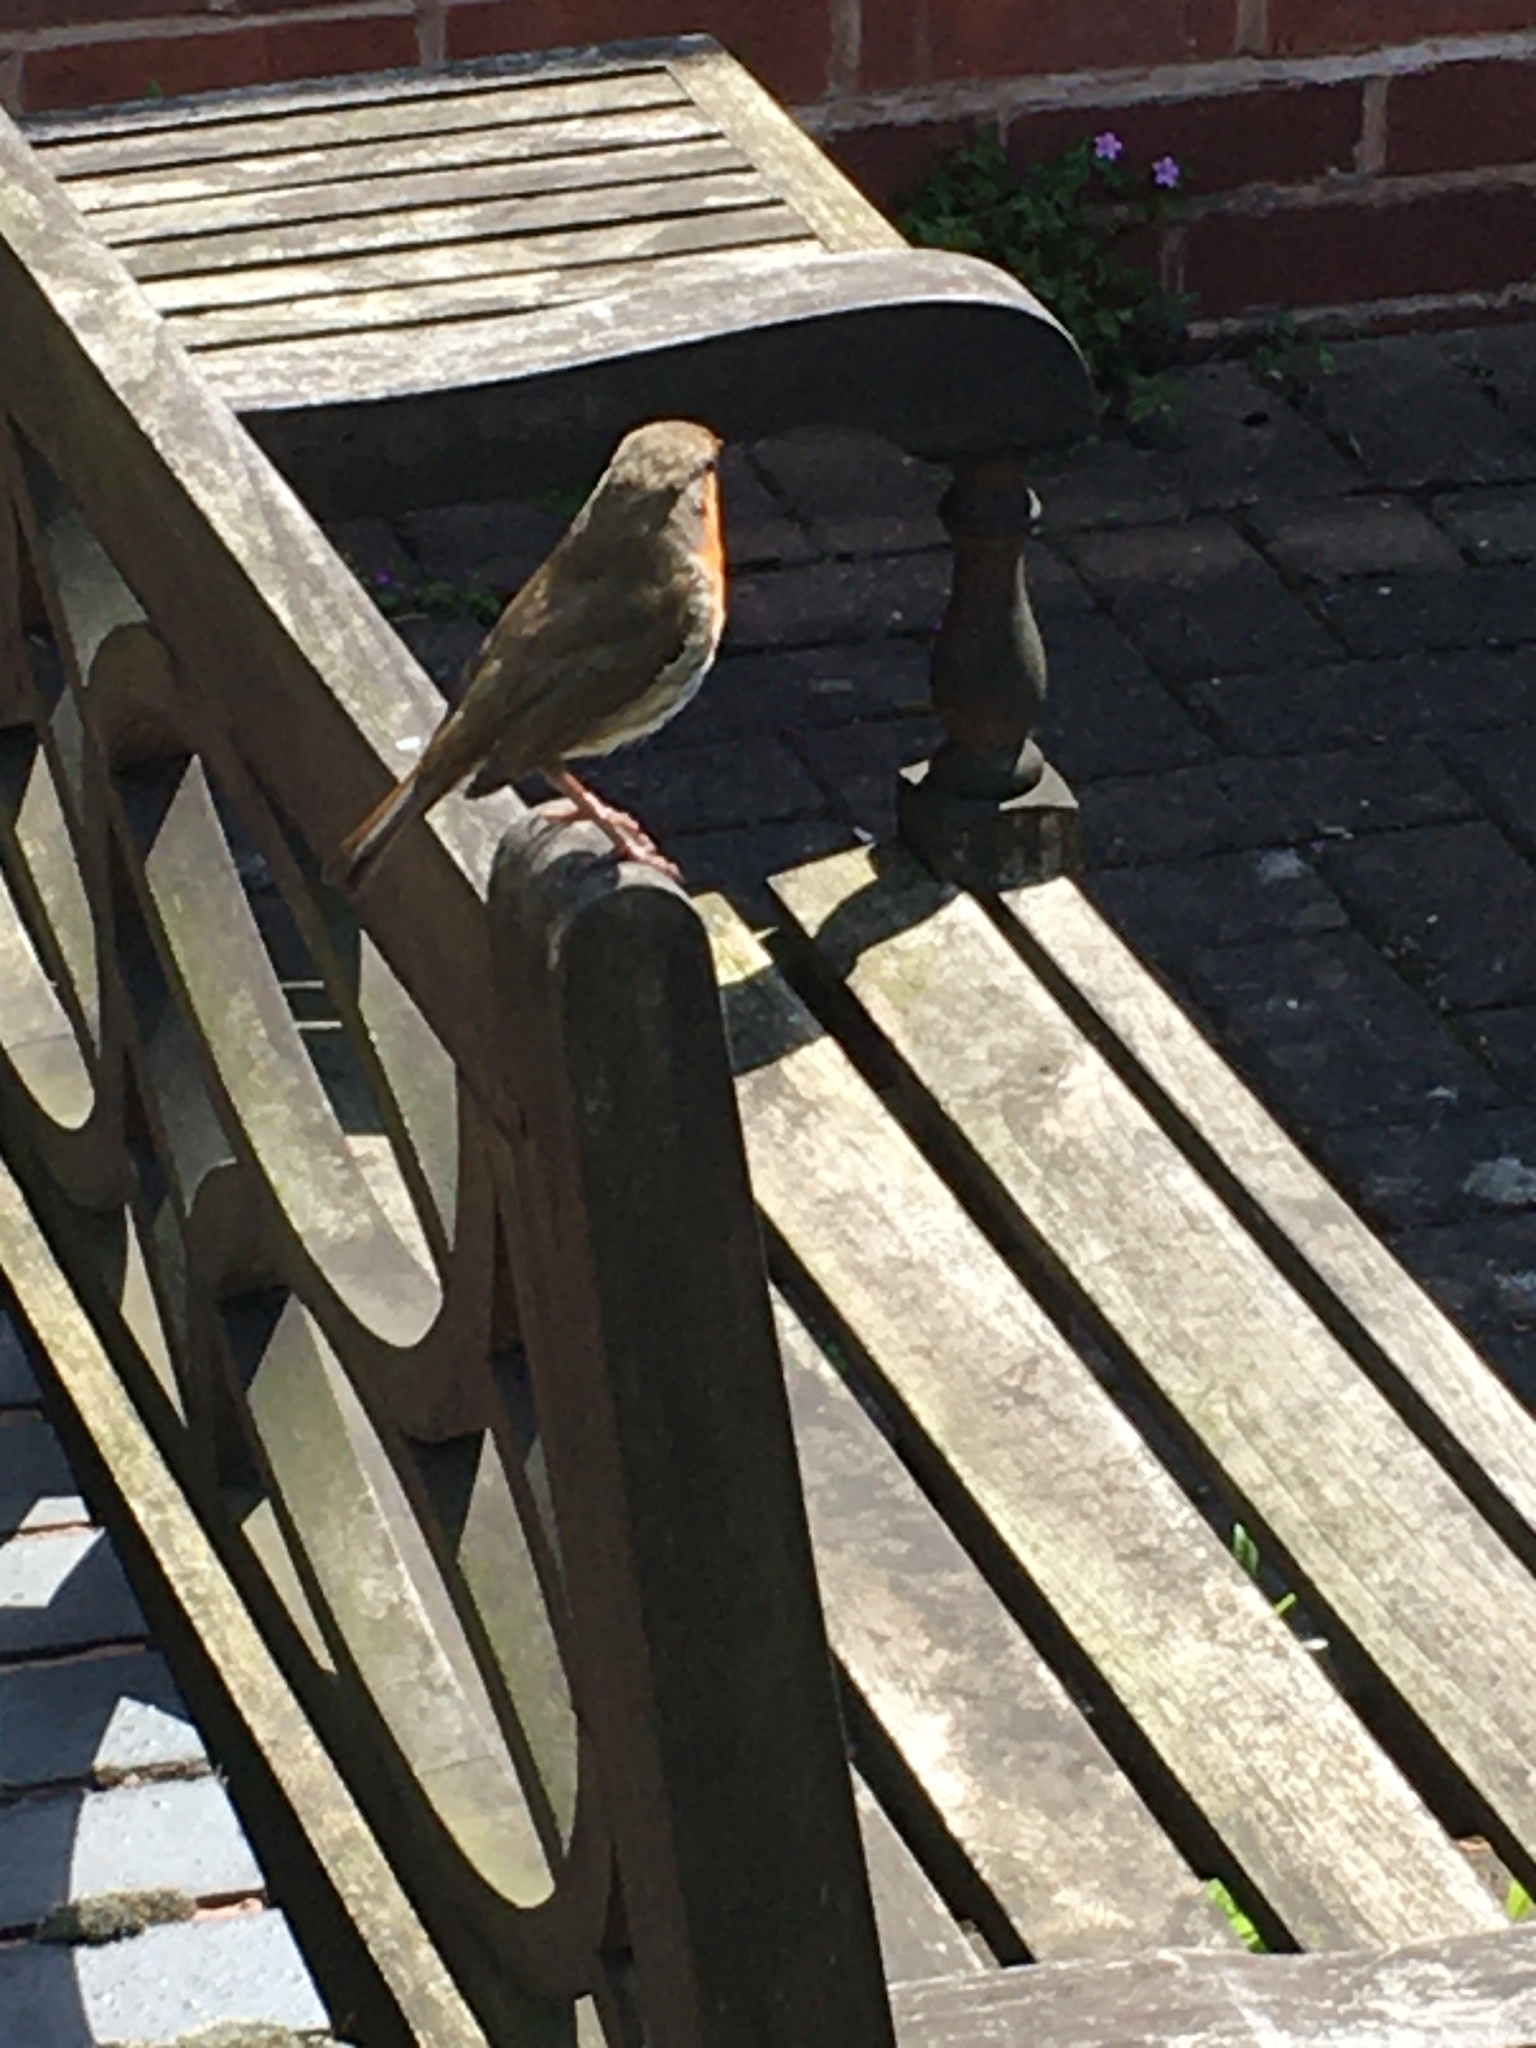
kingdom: Animalia
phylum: Chordata
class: Aves
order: Passeriformes
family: Muscicapidae
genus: Erithacus
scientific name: Erithacus rubecula
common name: European robin
